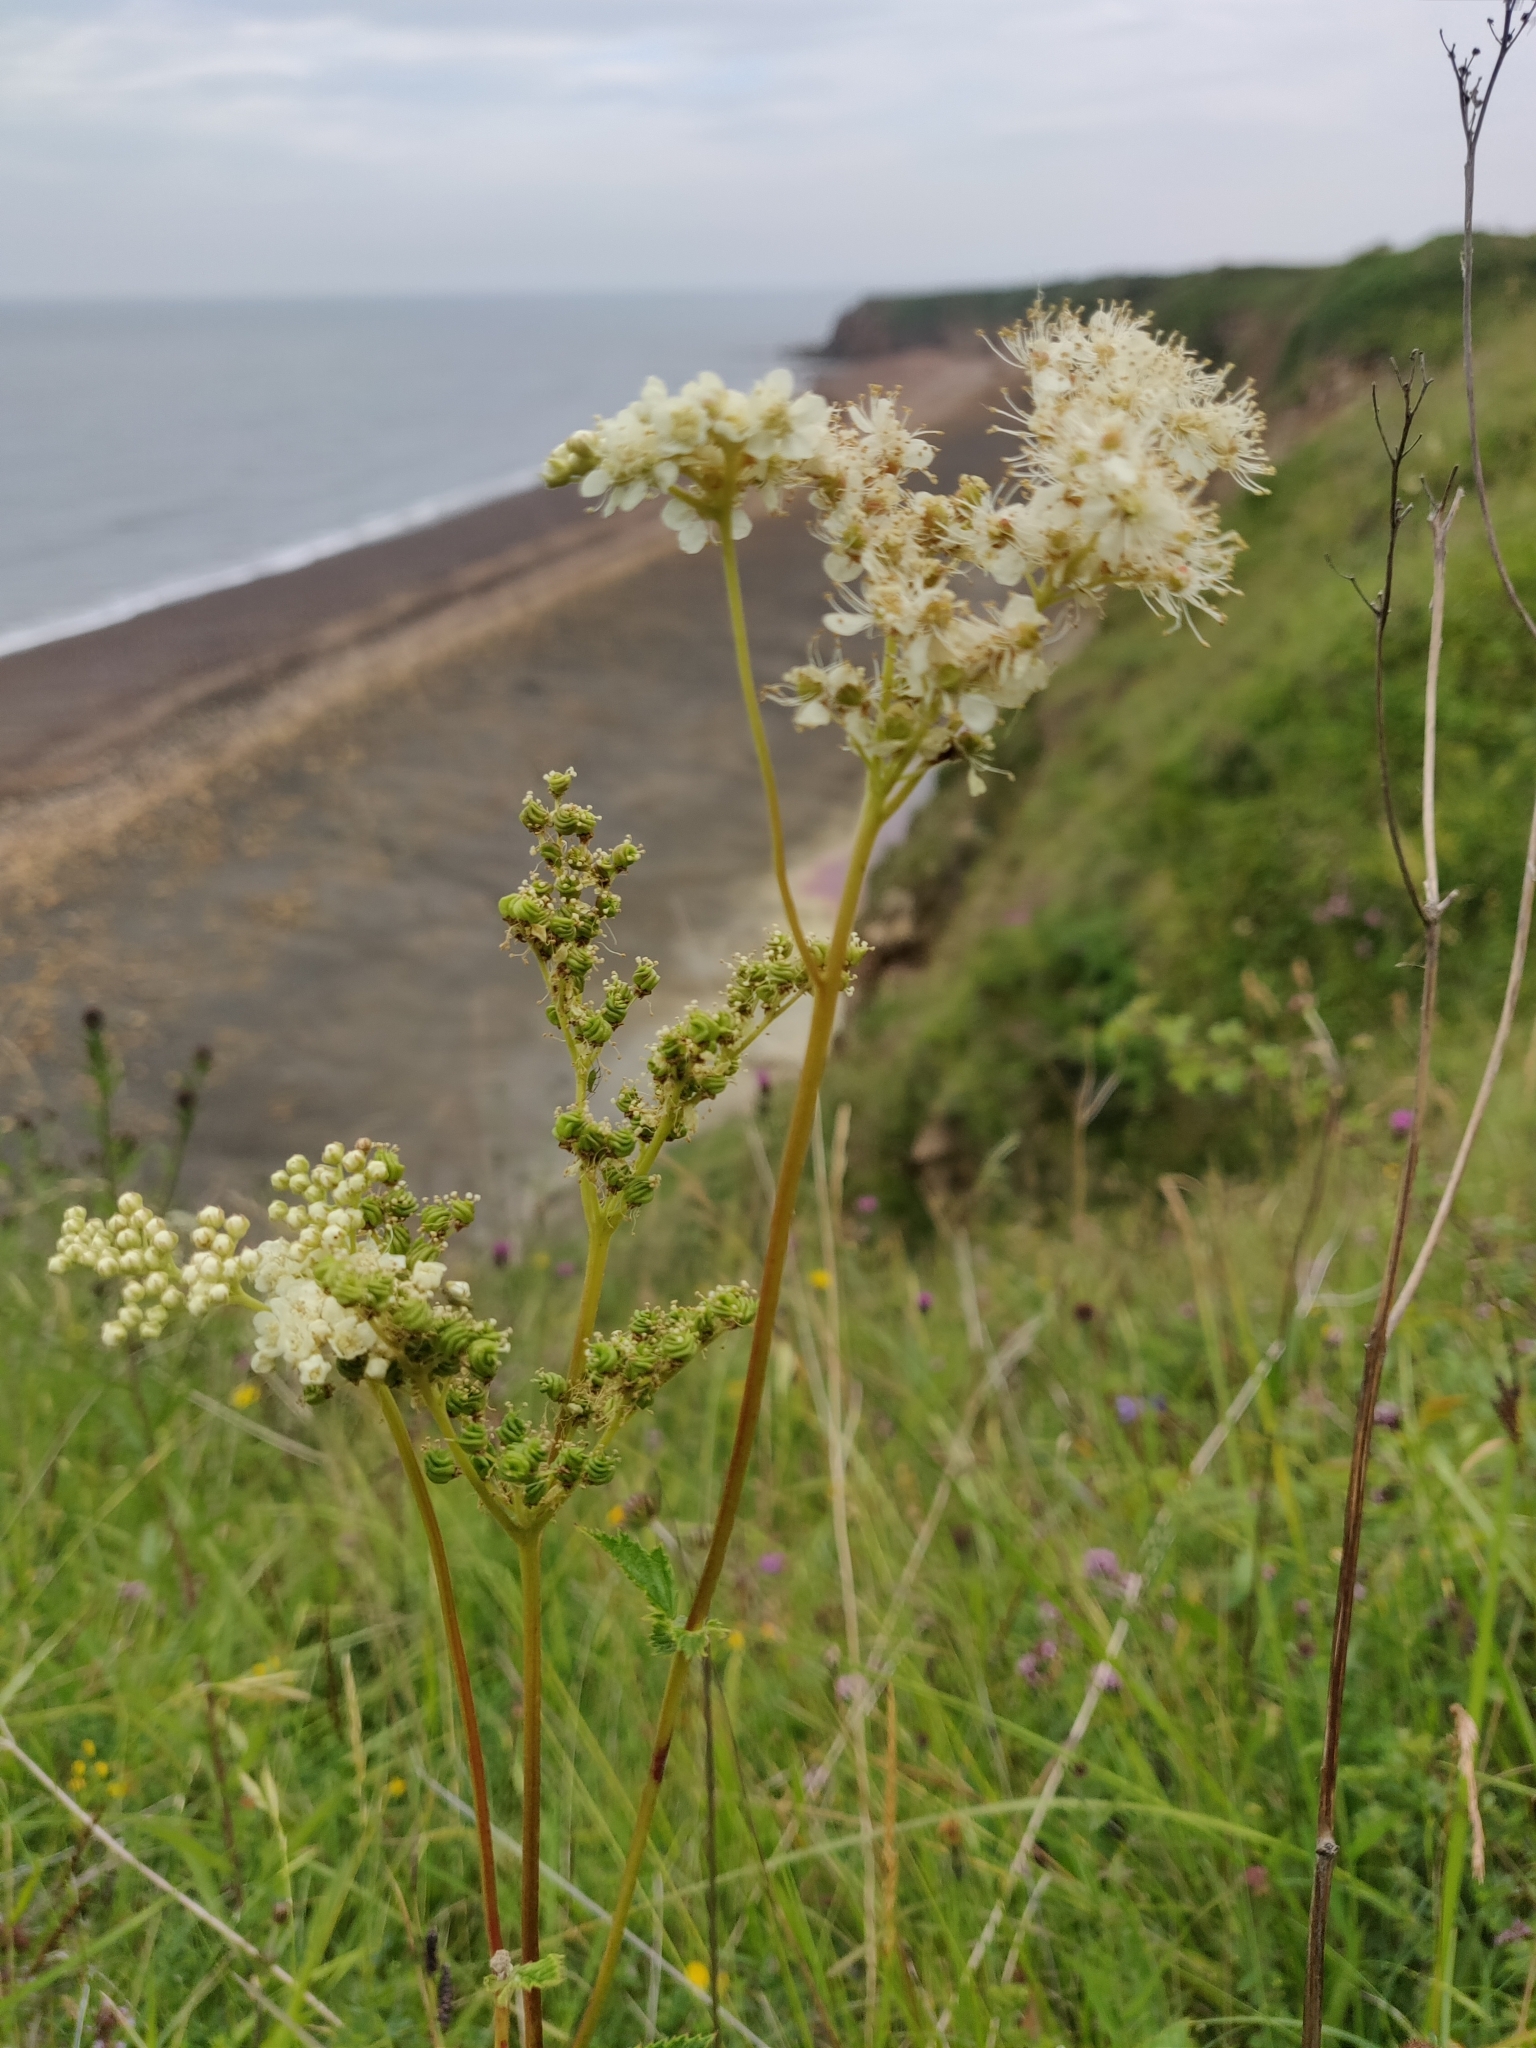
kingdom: Plantae
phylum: Tracheophyta
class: Magnoliopsida
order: Rosales
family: Rosaceae
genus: Filipendula
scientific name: Filipendula ulmaria
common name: Meadowsweet
